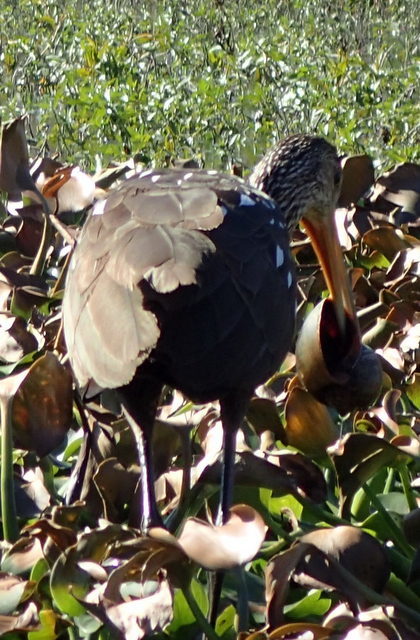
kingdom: Animalia
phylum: Chordata
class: Aves
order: Gruiformes
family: Aramidae
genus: Aramus
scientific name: Aramus guarauna
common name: Limpkin
